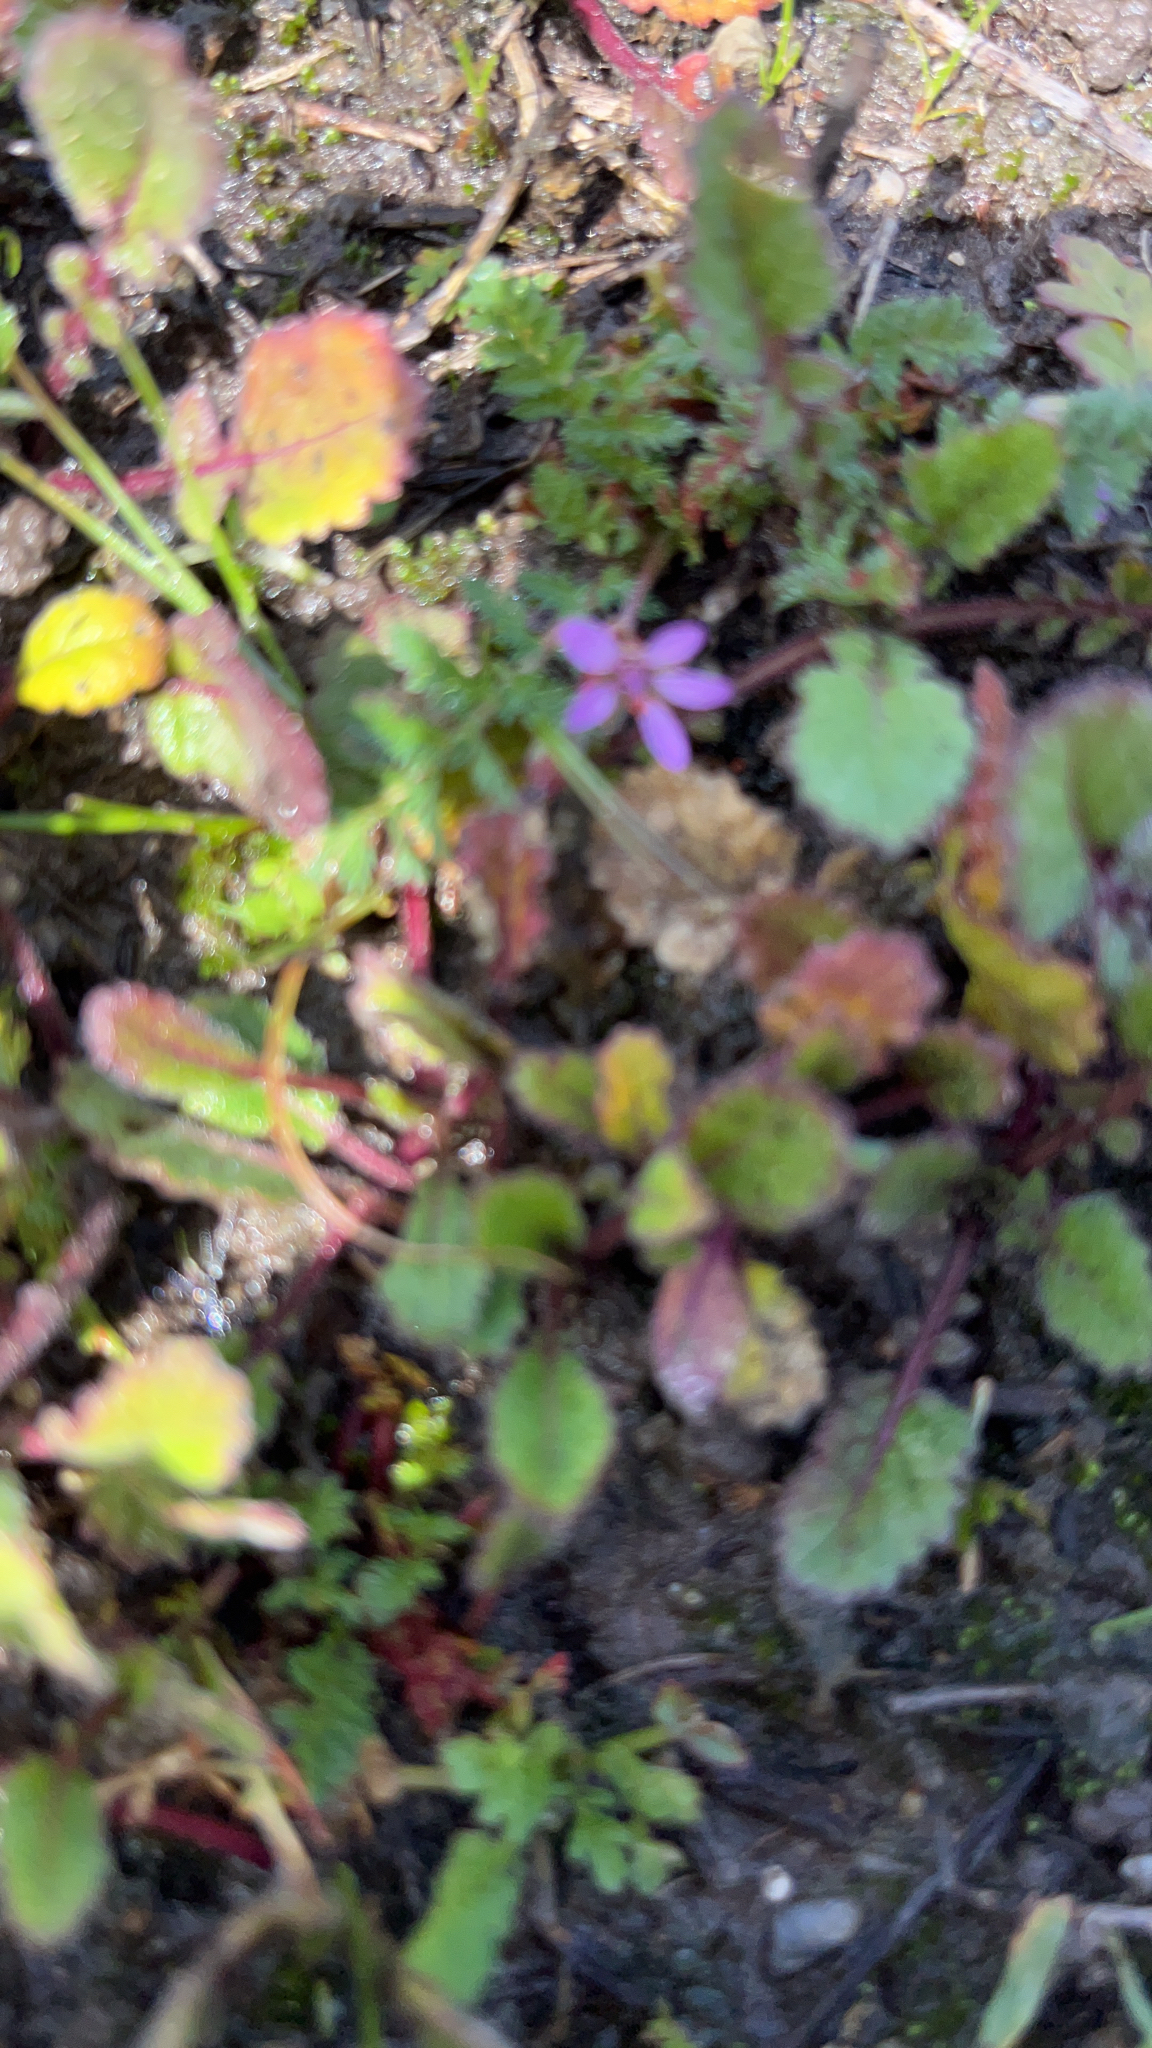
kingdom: Plantae
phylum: Tracheophyta
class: Magnoliopsida
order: Geraniales
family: Geraniaceae
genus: Erodium
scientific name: Erodium cicutarium
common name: Common stork's-bill
